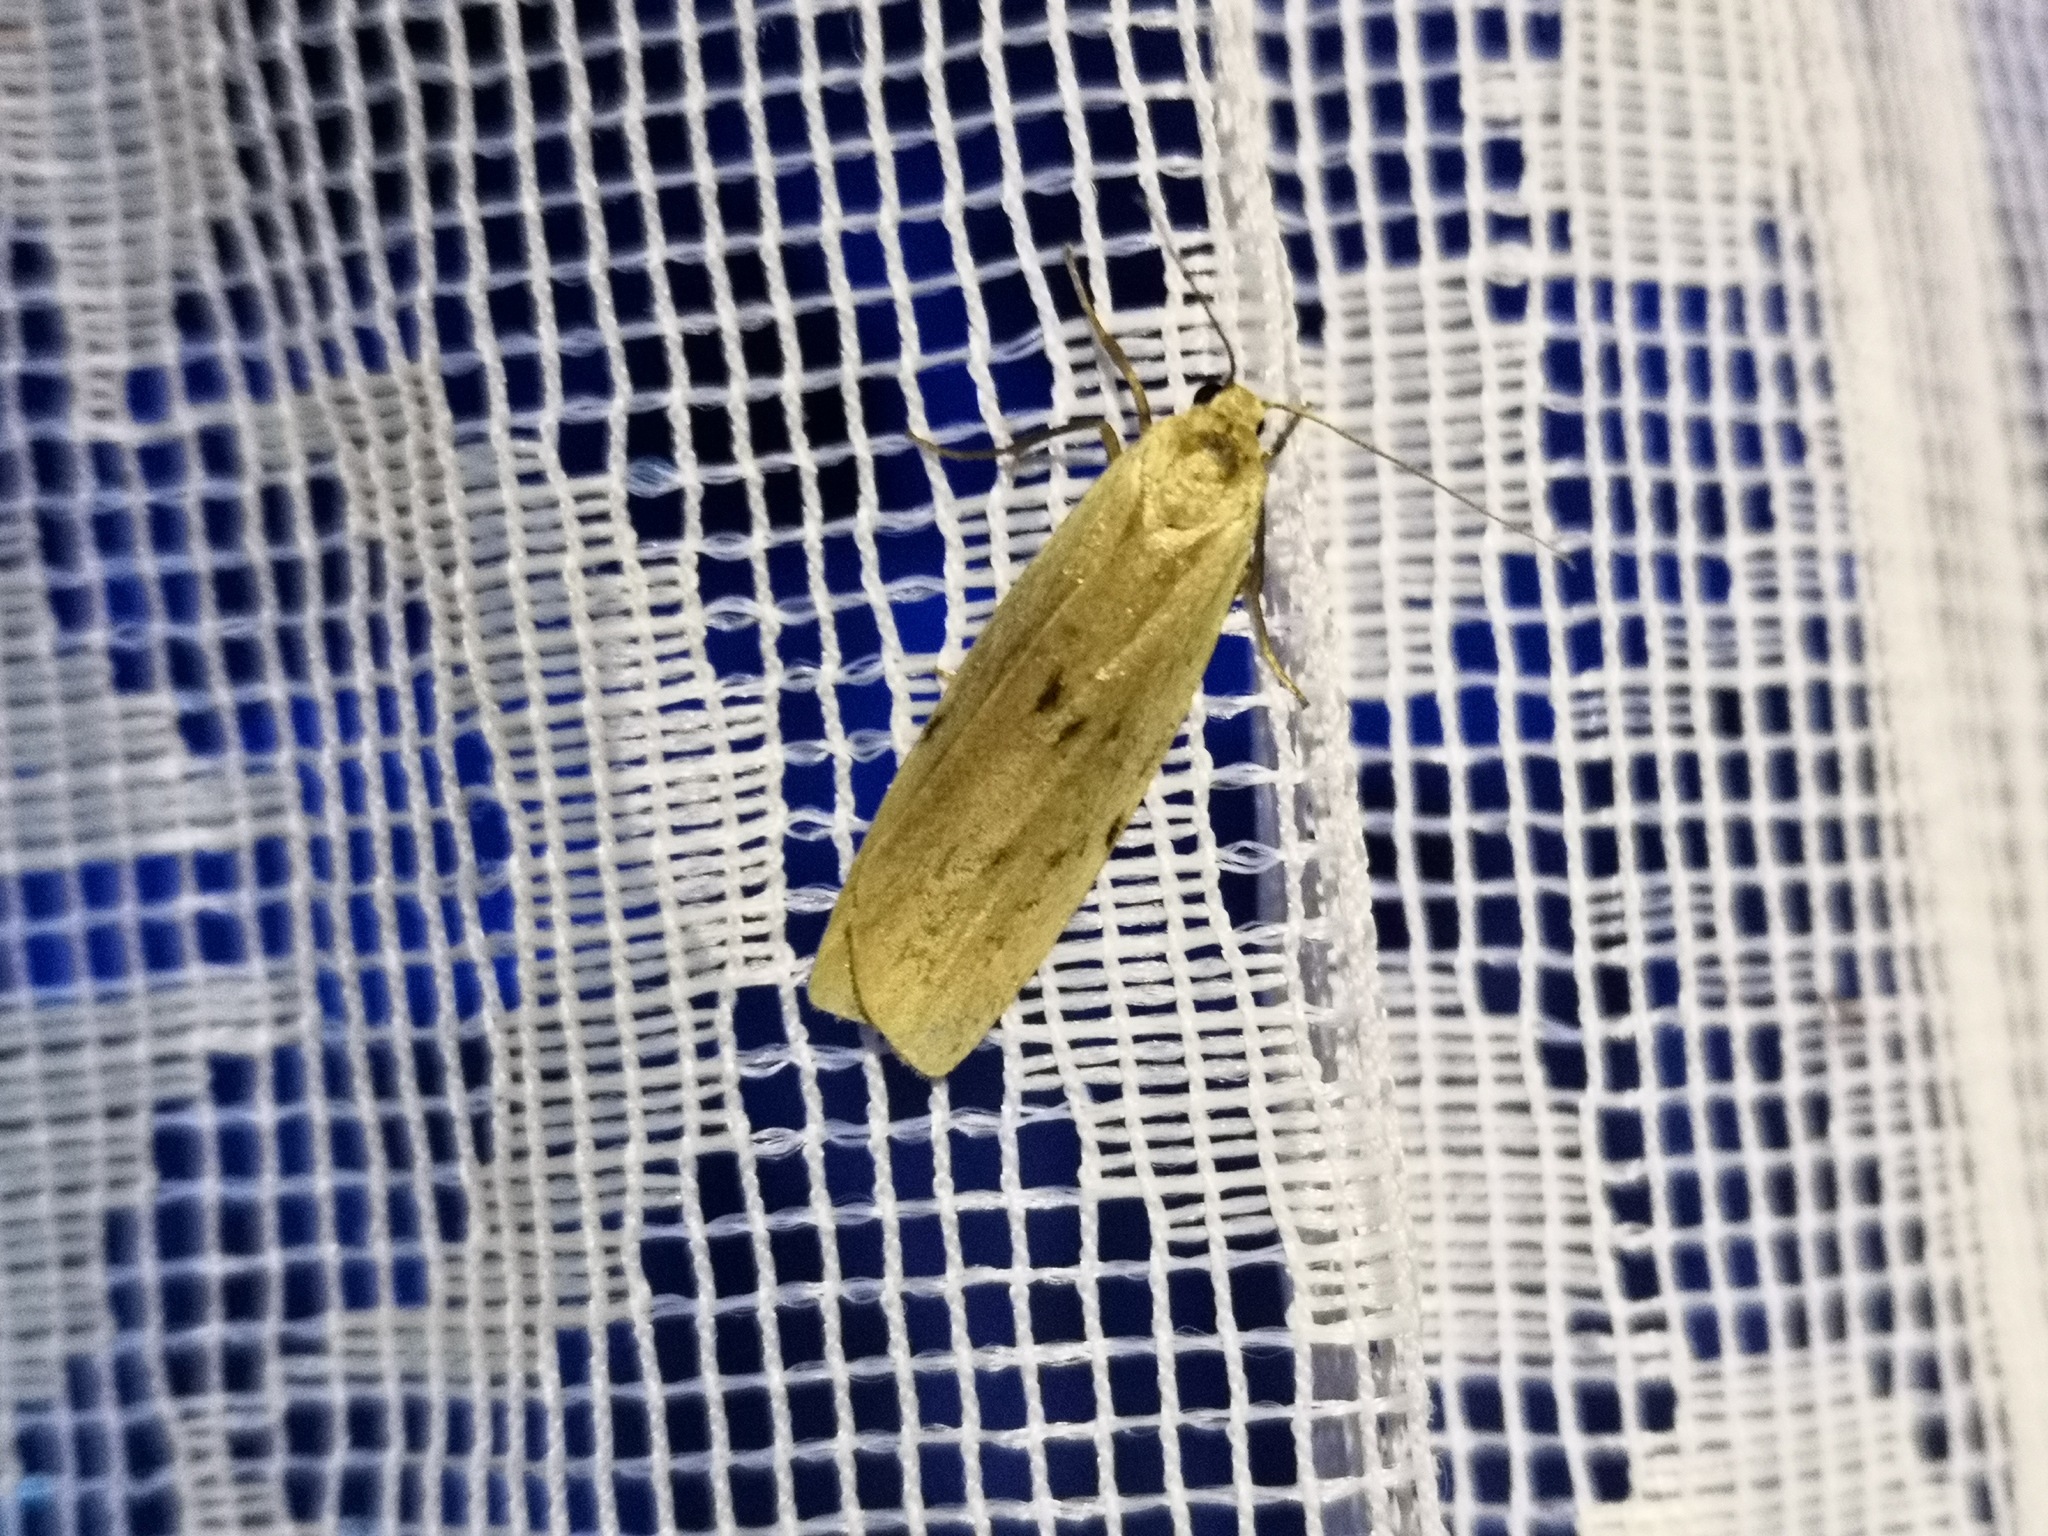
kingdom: Animalia
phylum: Arthropoda
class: Insecta
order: Lepidoptera
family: Erebidae
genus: Pelosia
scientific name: Pelosia muscerda
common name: Dotted footman
